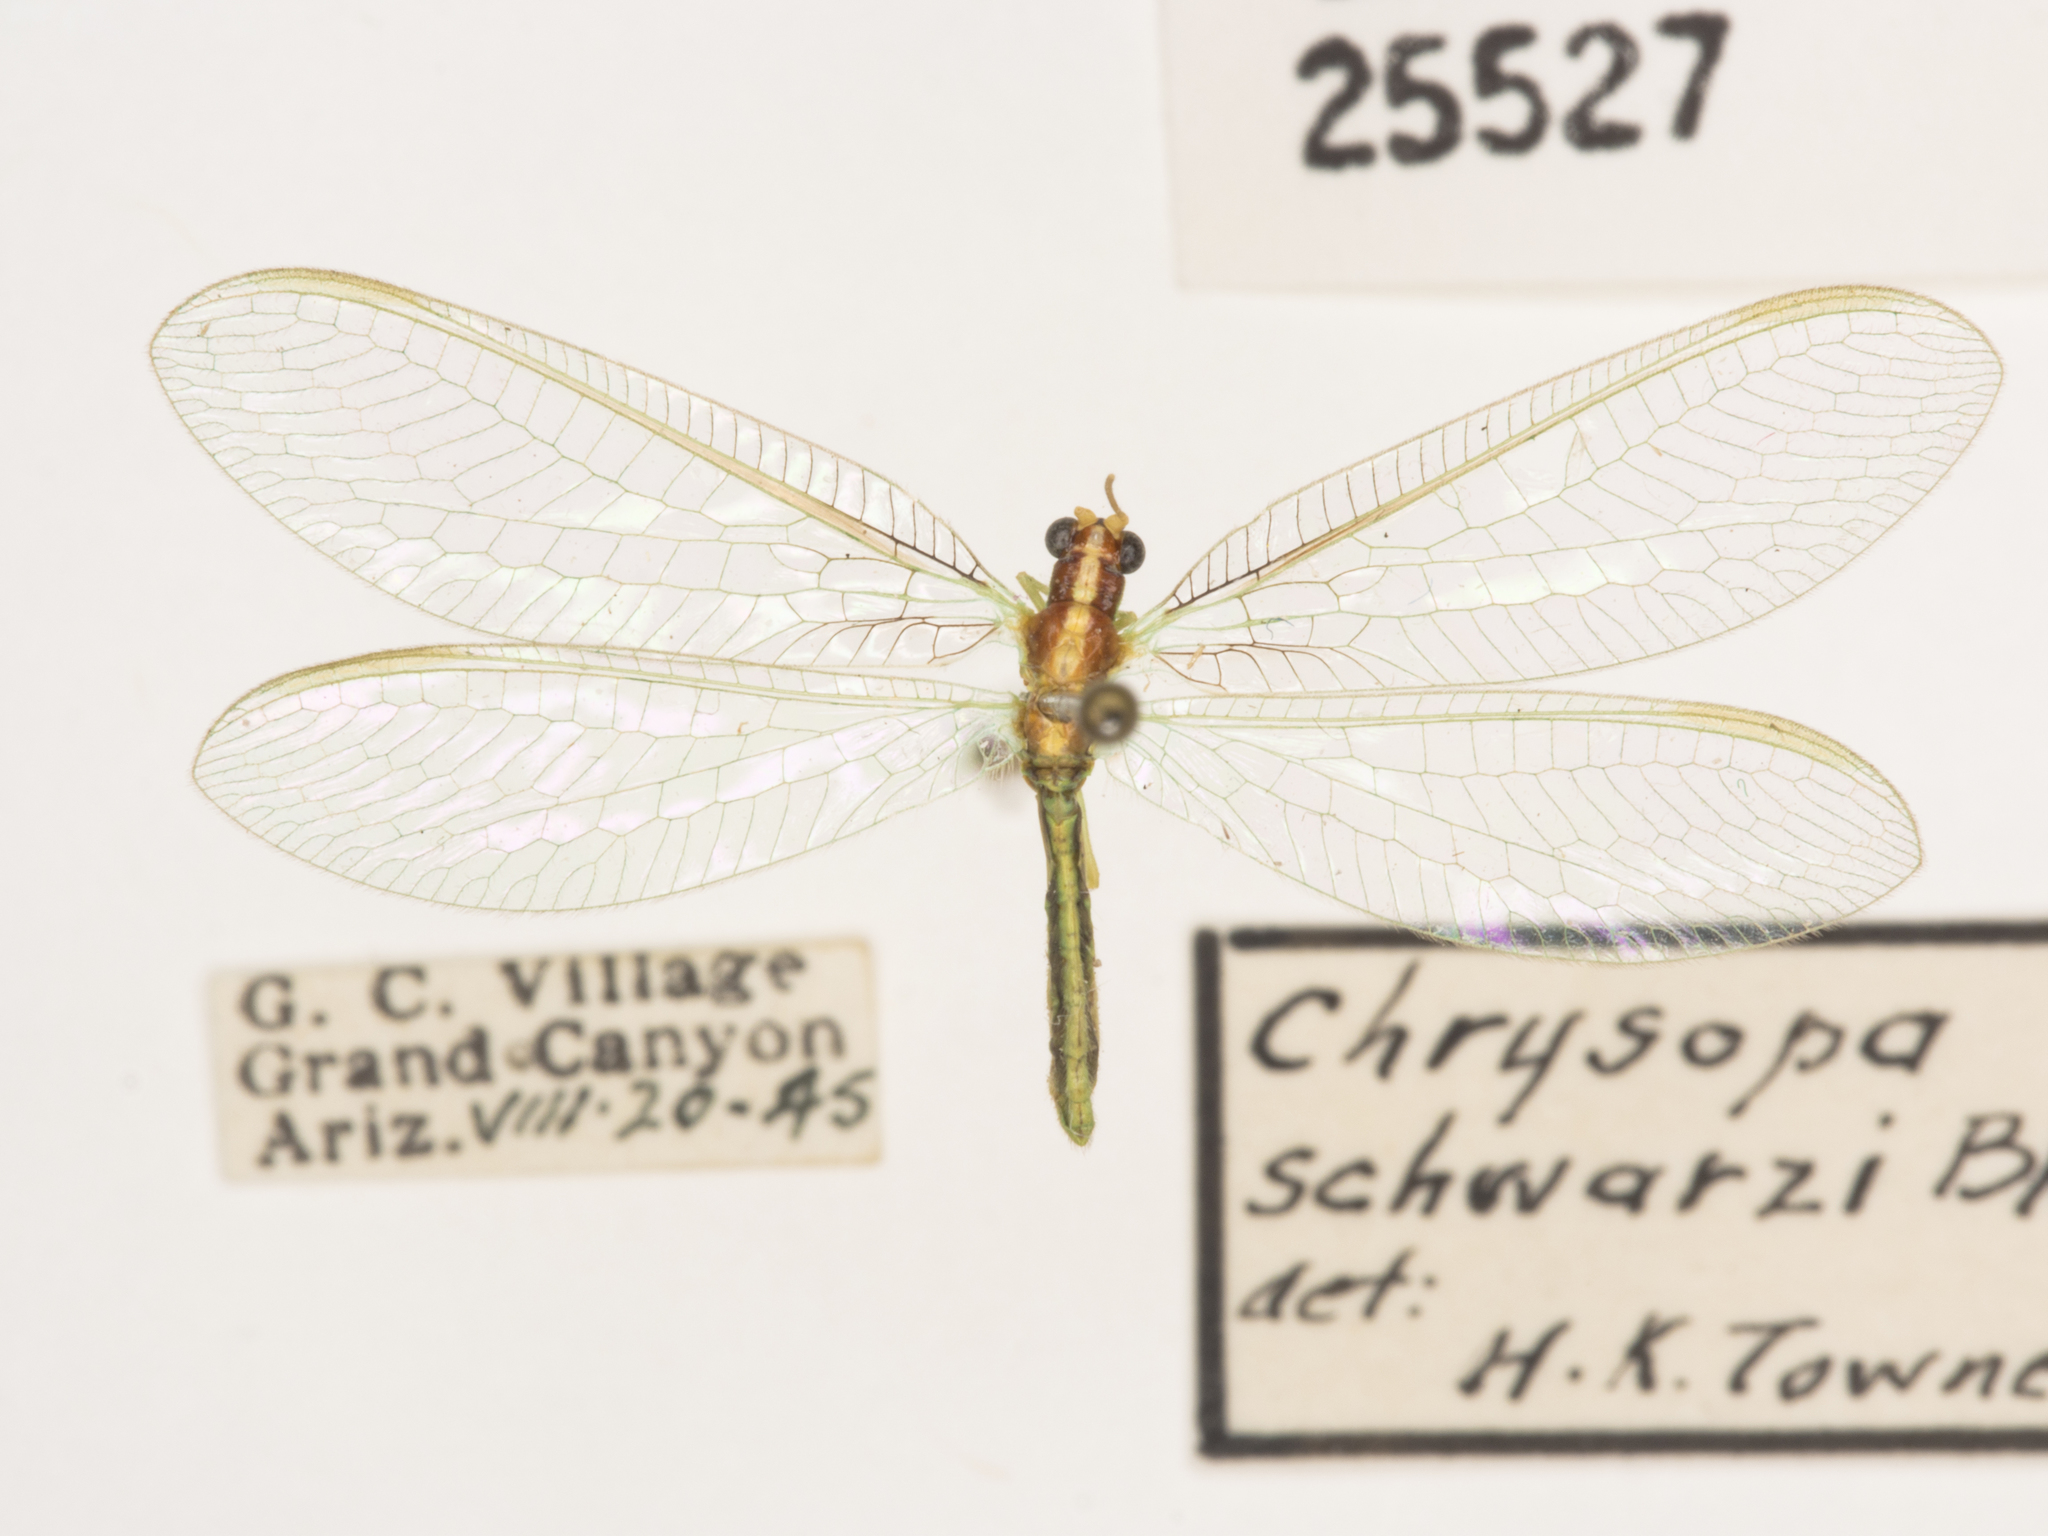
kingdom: Animalia
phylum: Arthropoda
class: Insecta
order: Neuroptera
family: Chrysopidae
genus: Meleoma
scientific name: Meleoma schwarzi
